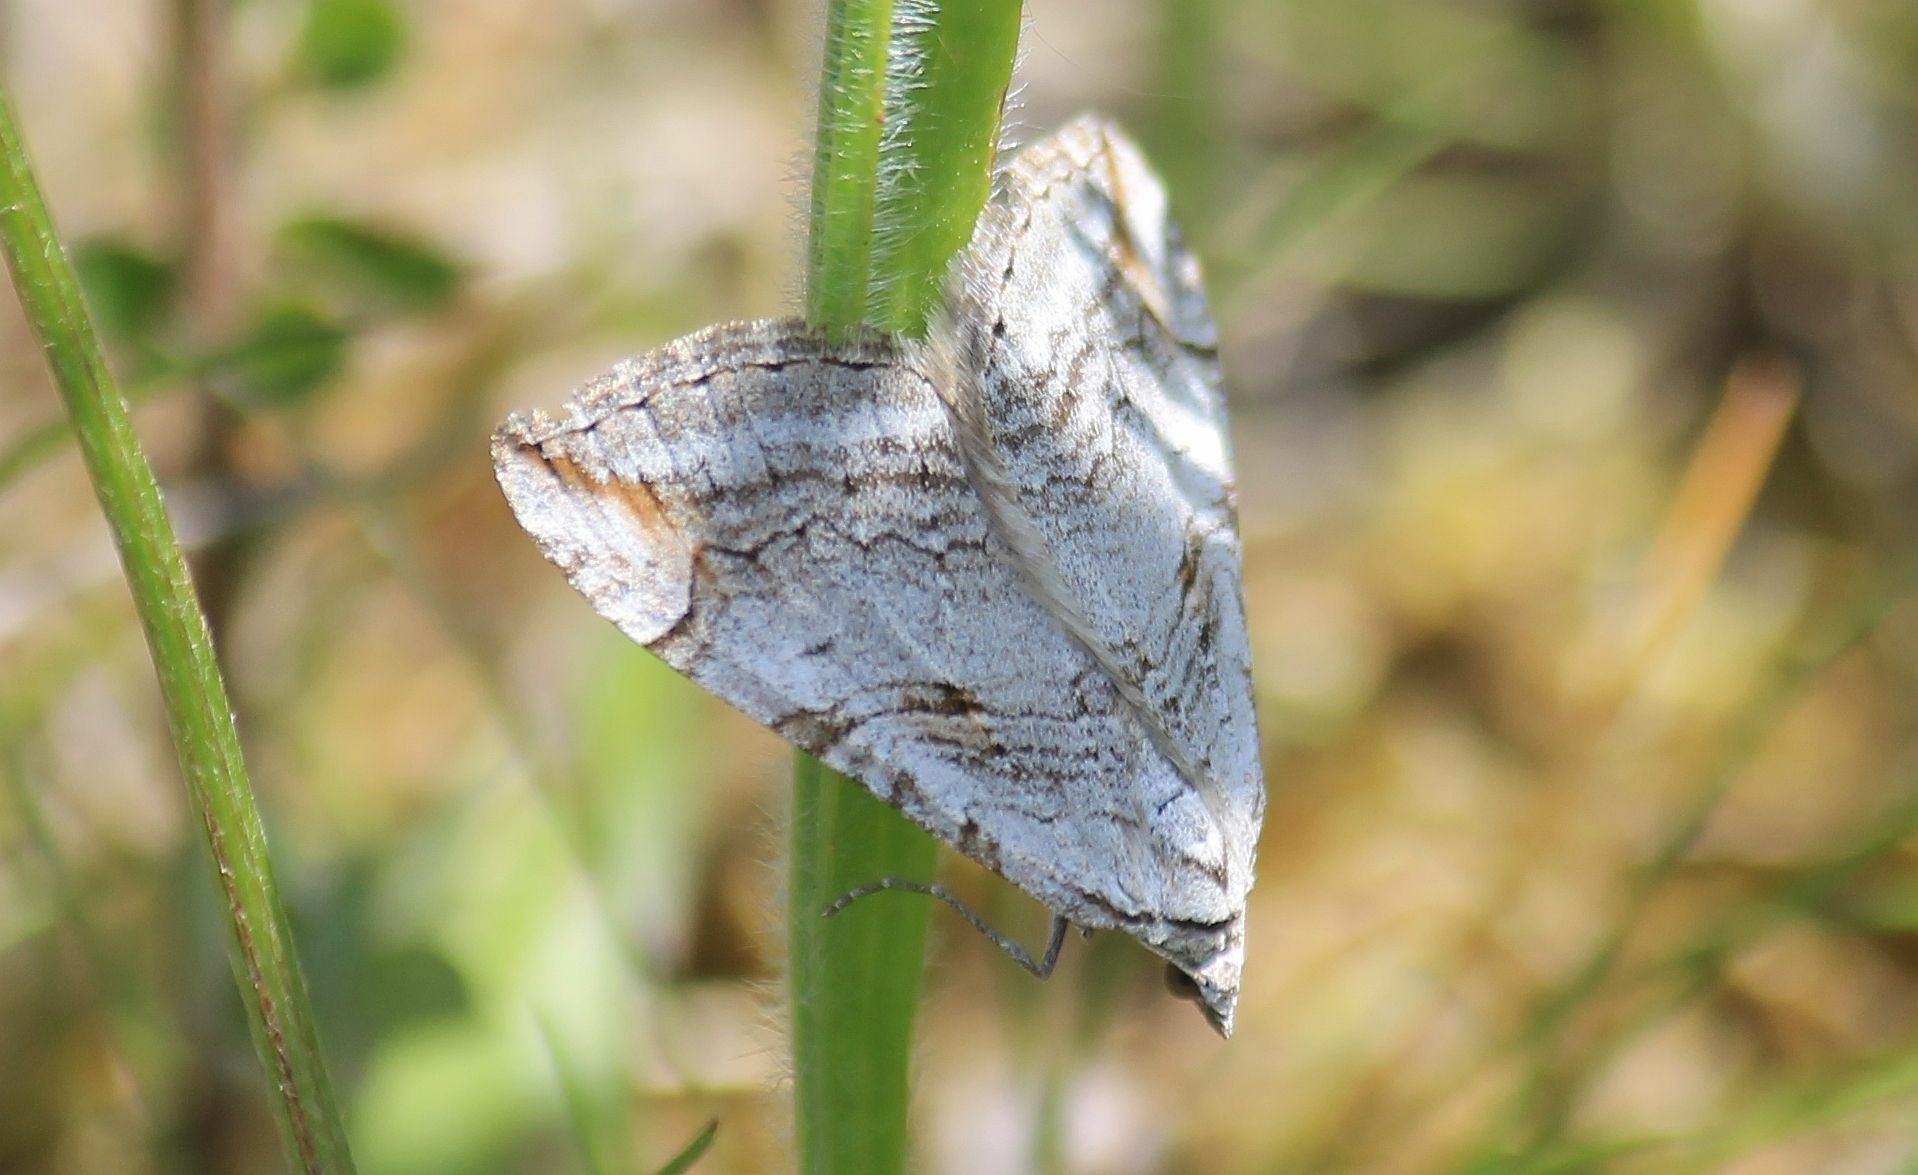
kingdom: Animalia
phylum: Arthropoda
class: Insecta
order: Lepidoptera
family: Geometridae
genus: Aplocera
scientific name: Aplocera plagiata
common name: Treble-bar
